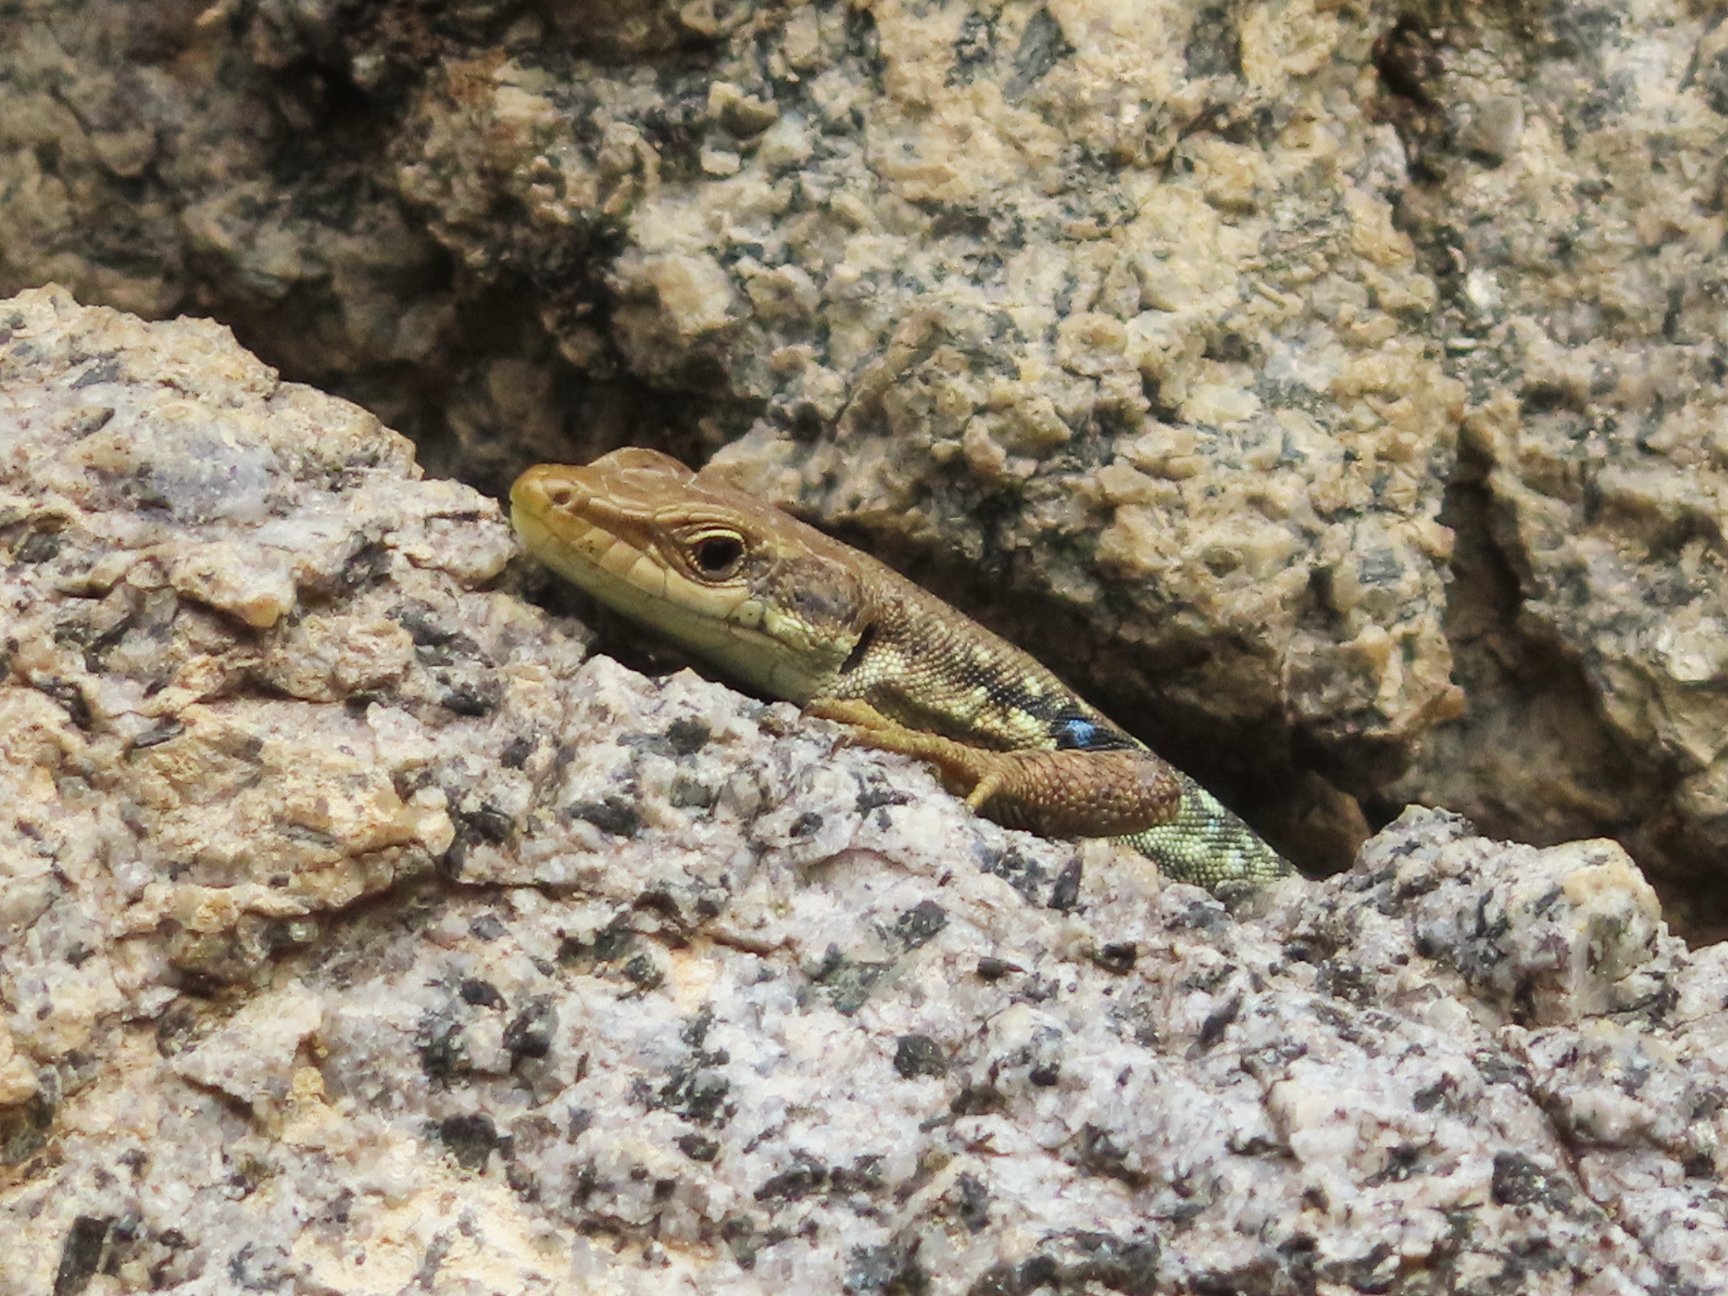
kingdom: Animalia
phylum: Chordata
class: Squamata
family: Lacertidae
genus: Darevskia
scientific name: Darevskia raddei
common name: Radde's lizard
